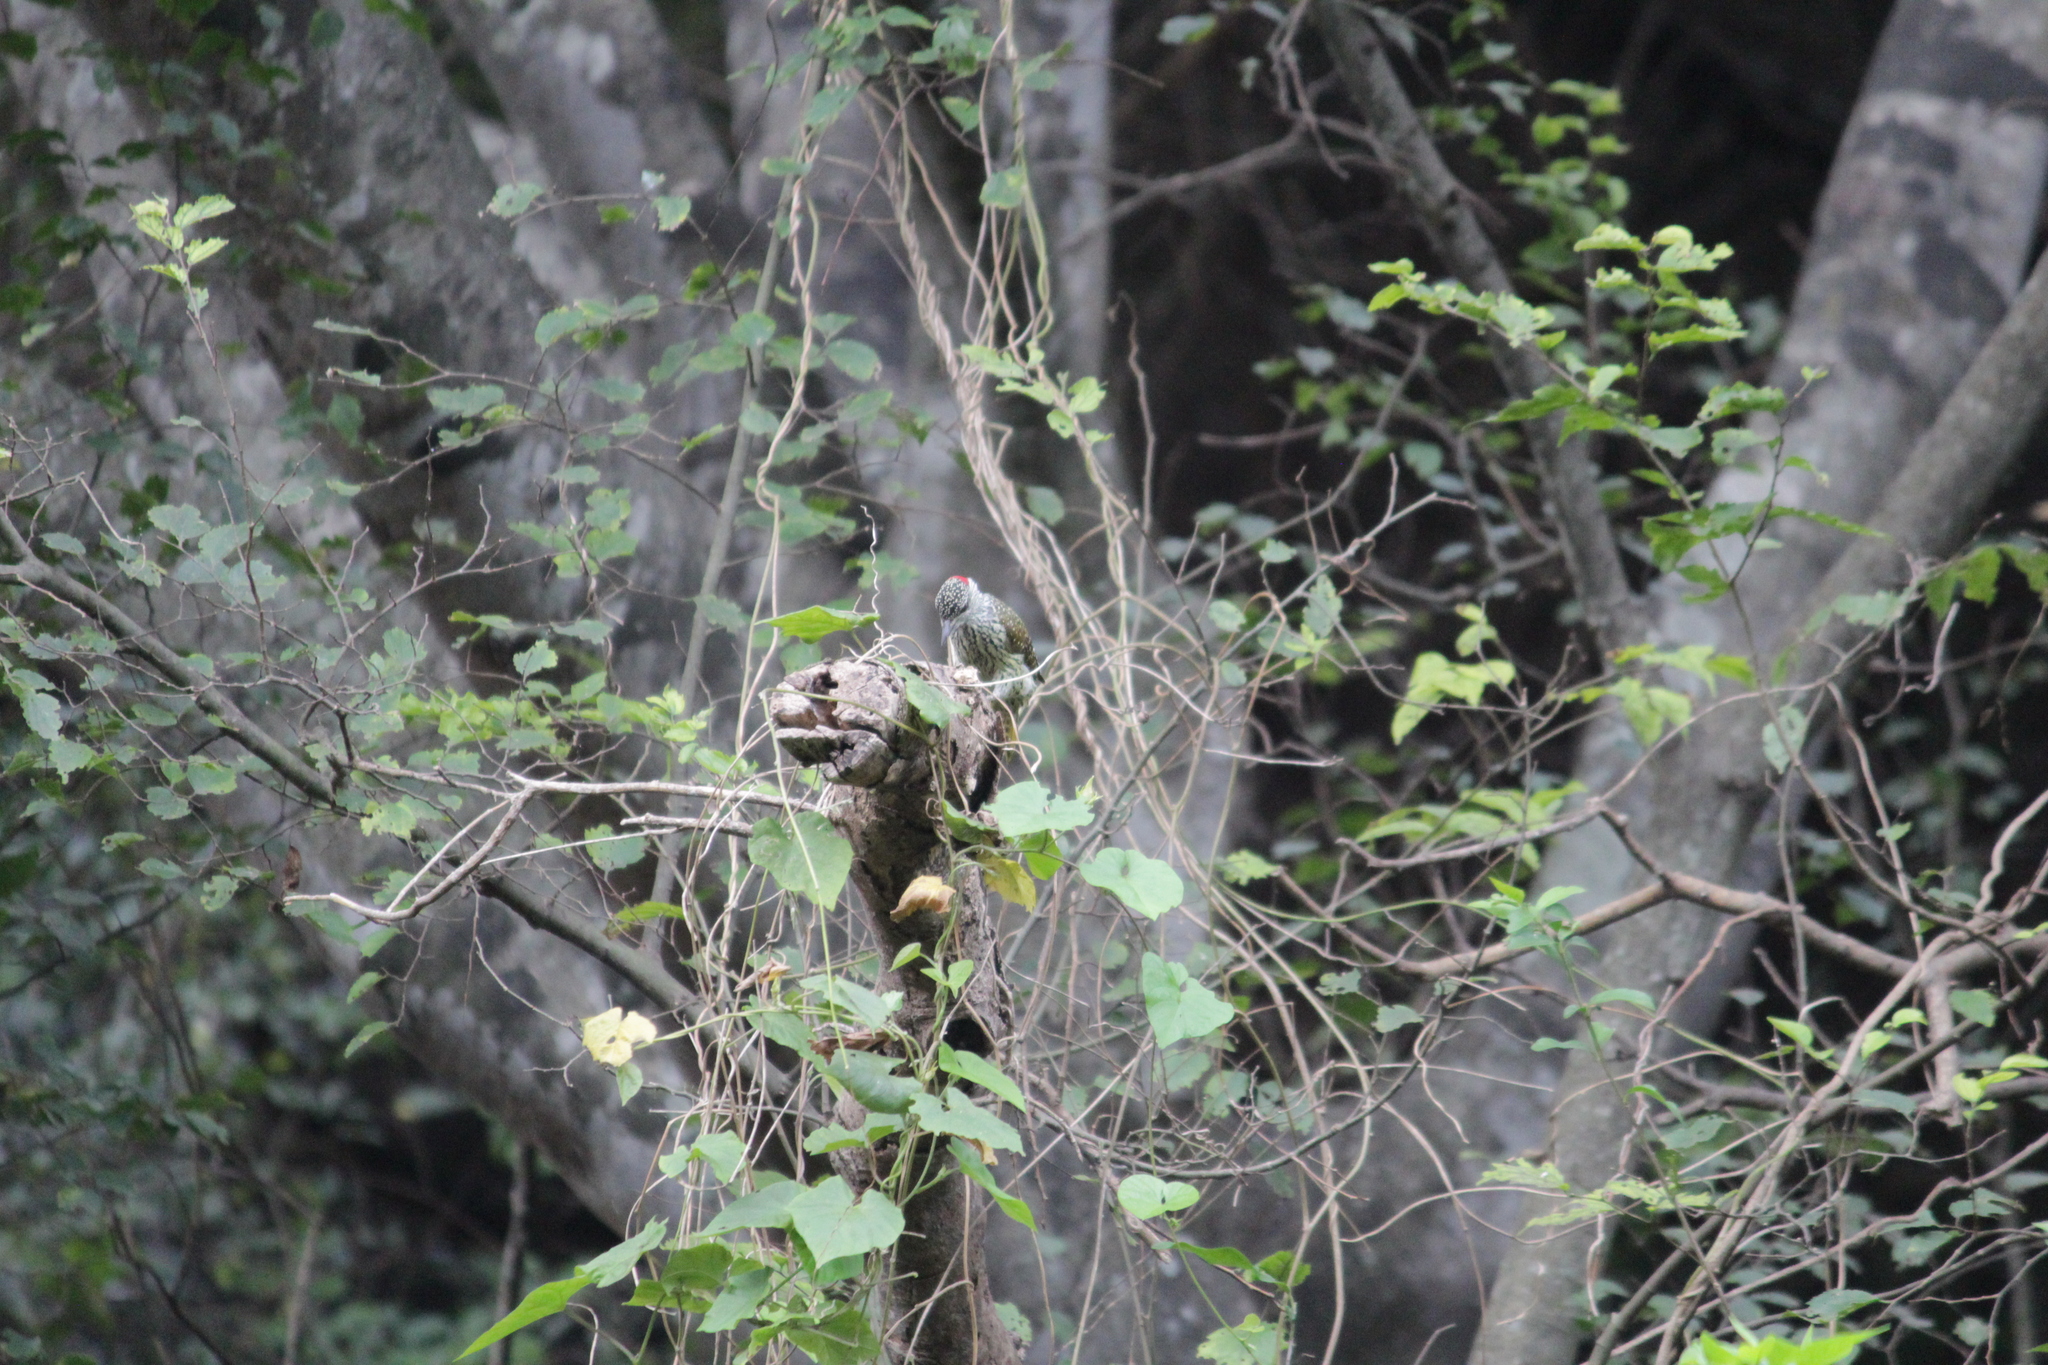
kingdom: Animalia
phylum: Chordata
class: Aves
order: Piciformes
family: Picidae
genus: Campethera
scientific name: Campethera abingoni
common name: Golden-tailed woodpecker
